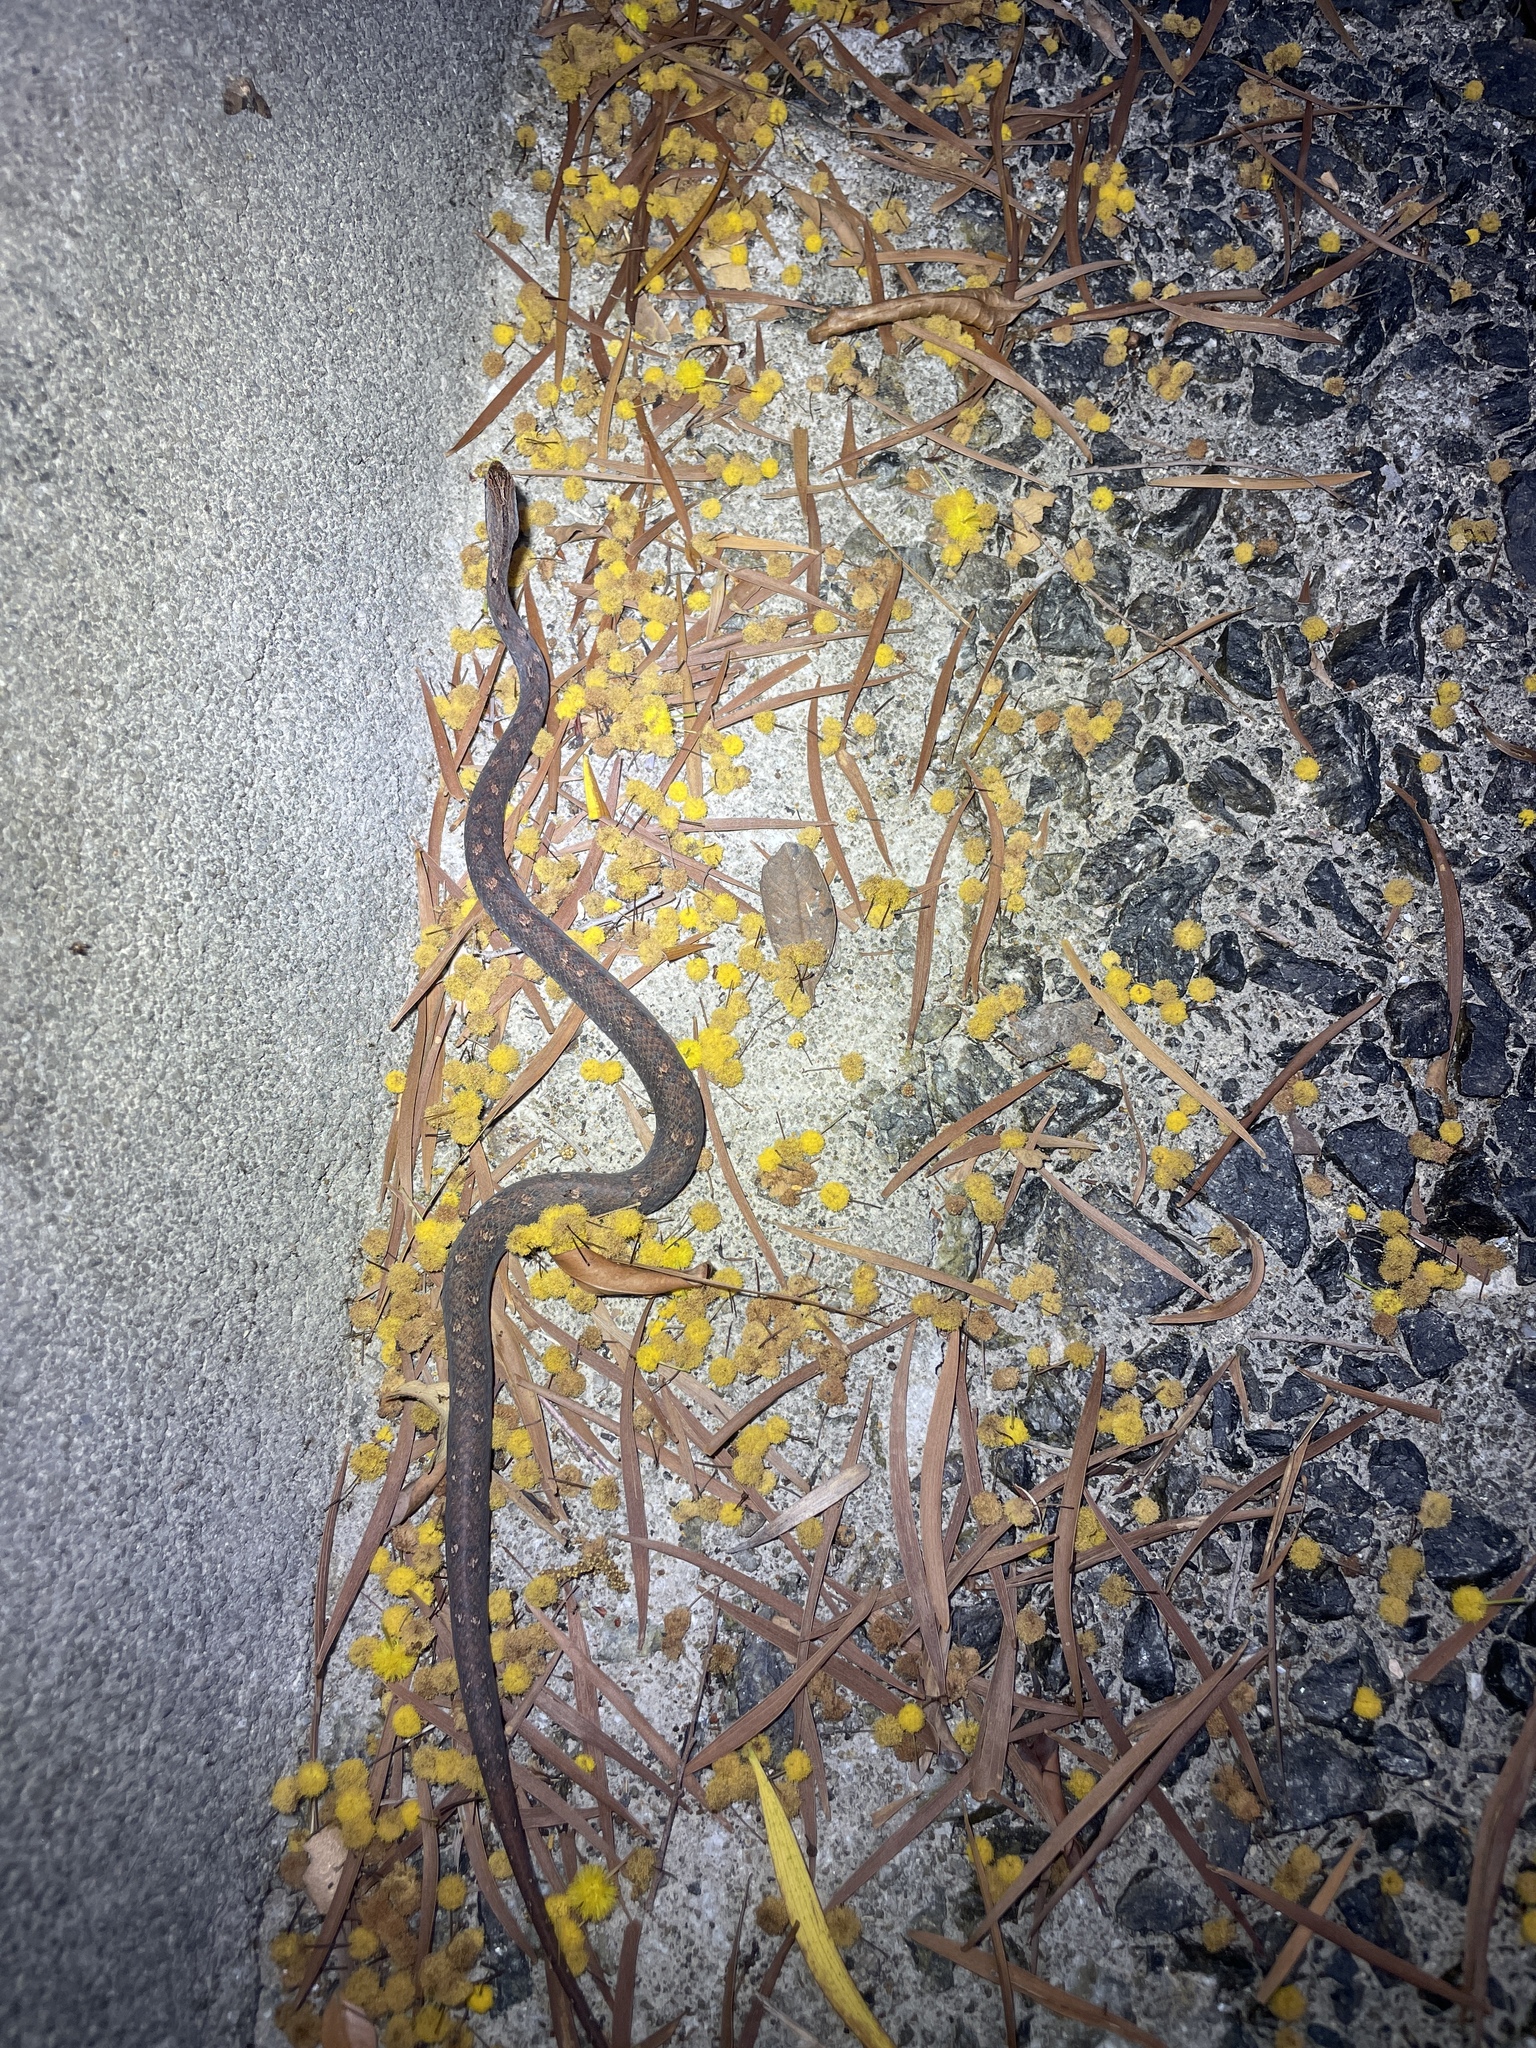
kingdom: Animalia
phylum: Chordata
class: Squamata
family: Pseudaspididae
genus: Psammodynastes
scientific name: Psammodynastes pulverulentus
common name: Common mock viper
